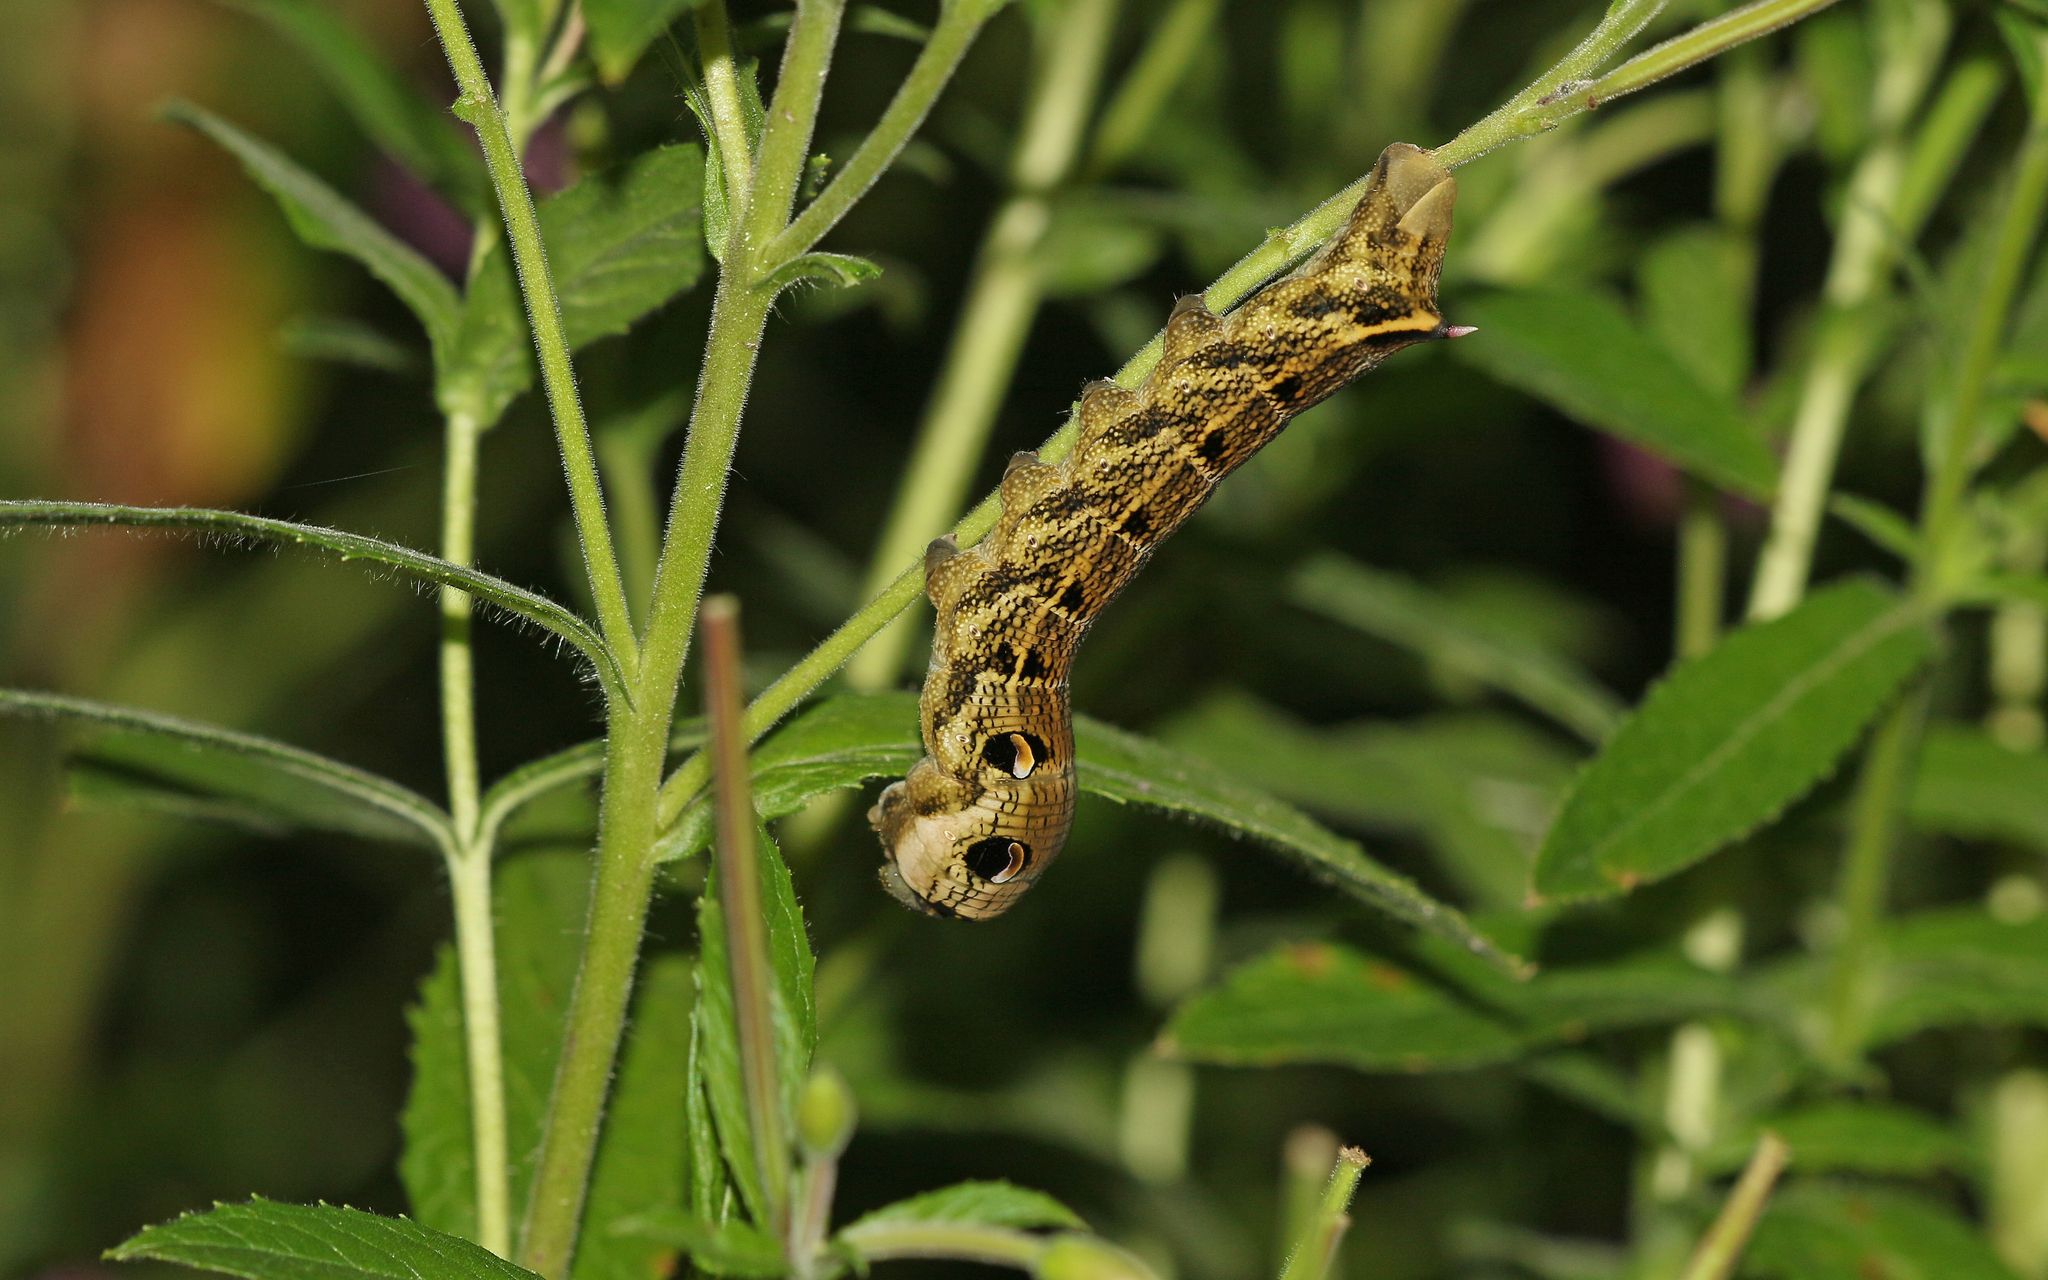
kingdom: Animalia
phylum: Arthropoda
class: Insecta
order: Lepidoptera
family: Sphingidae
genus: Deilephila
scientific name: Deilephila elpenor
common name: Elephant hawk-moth
